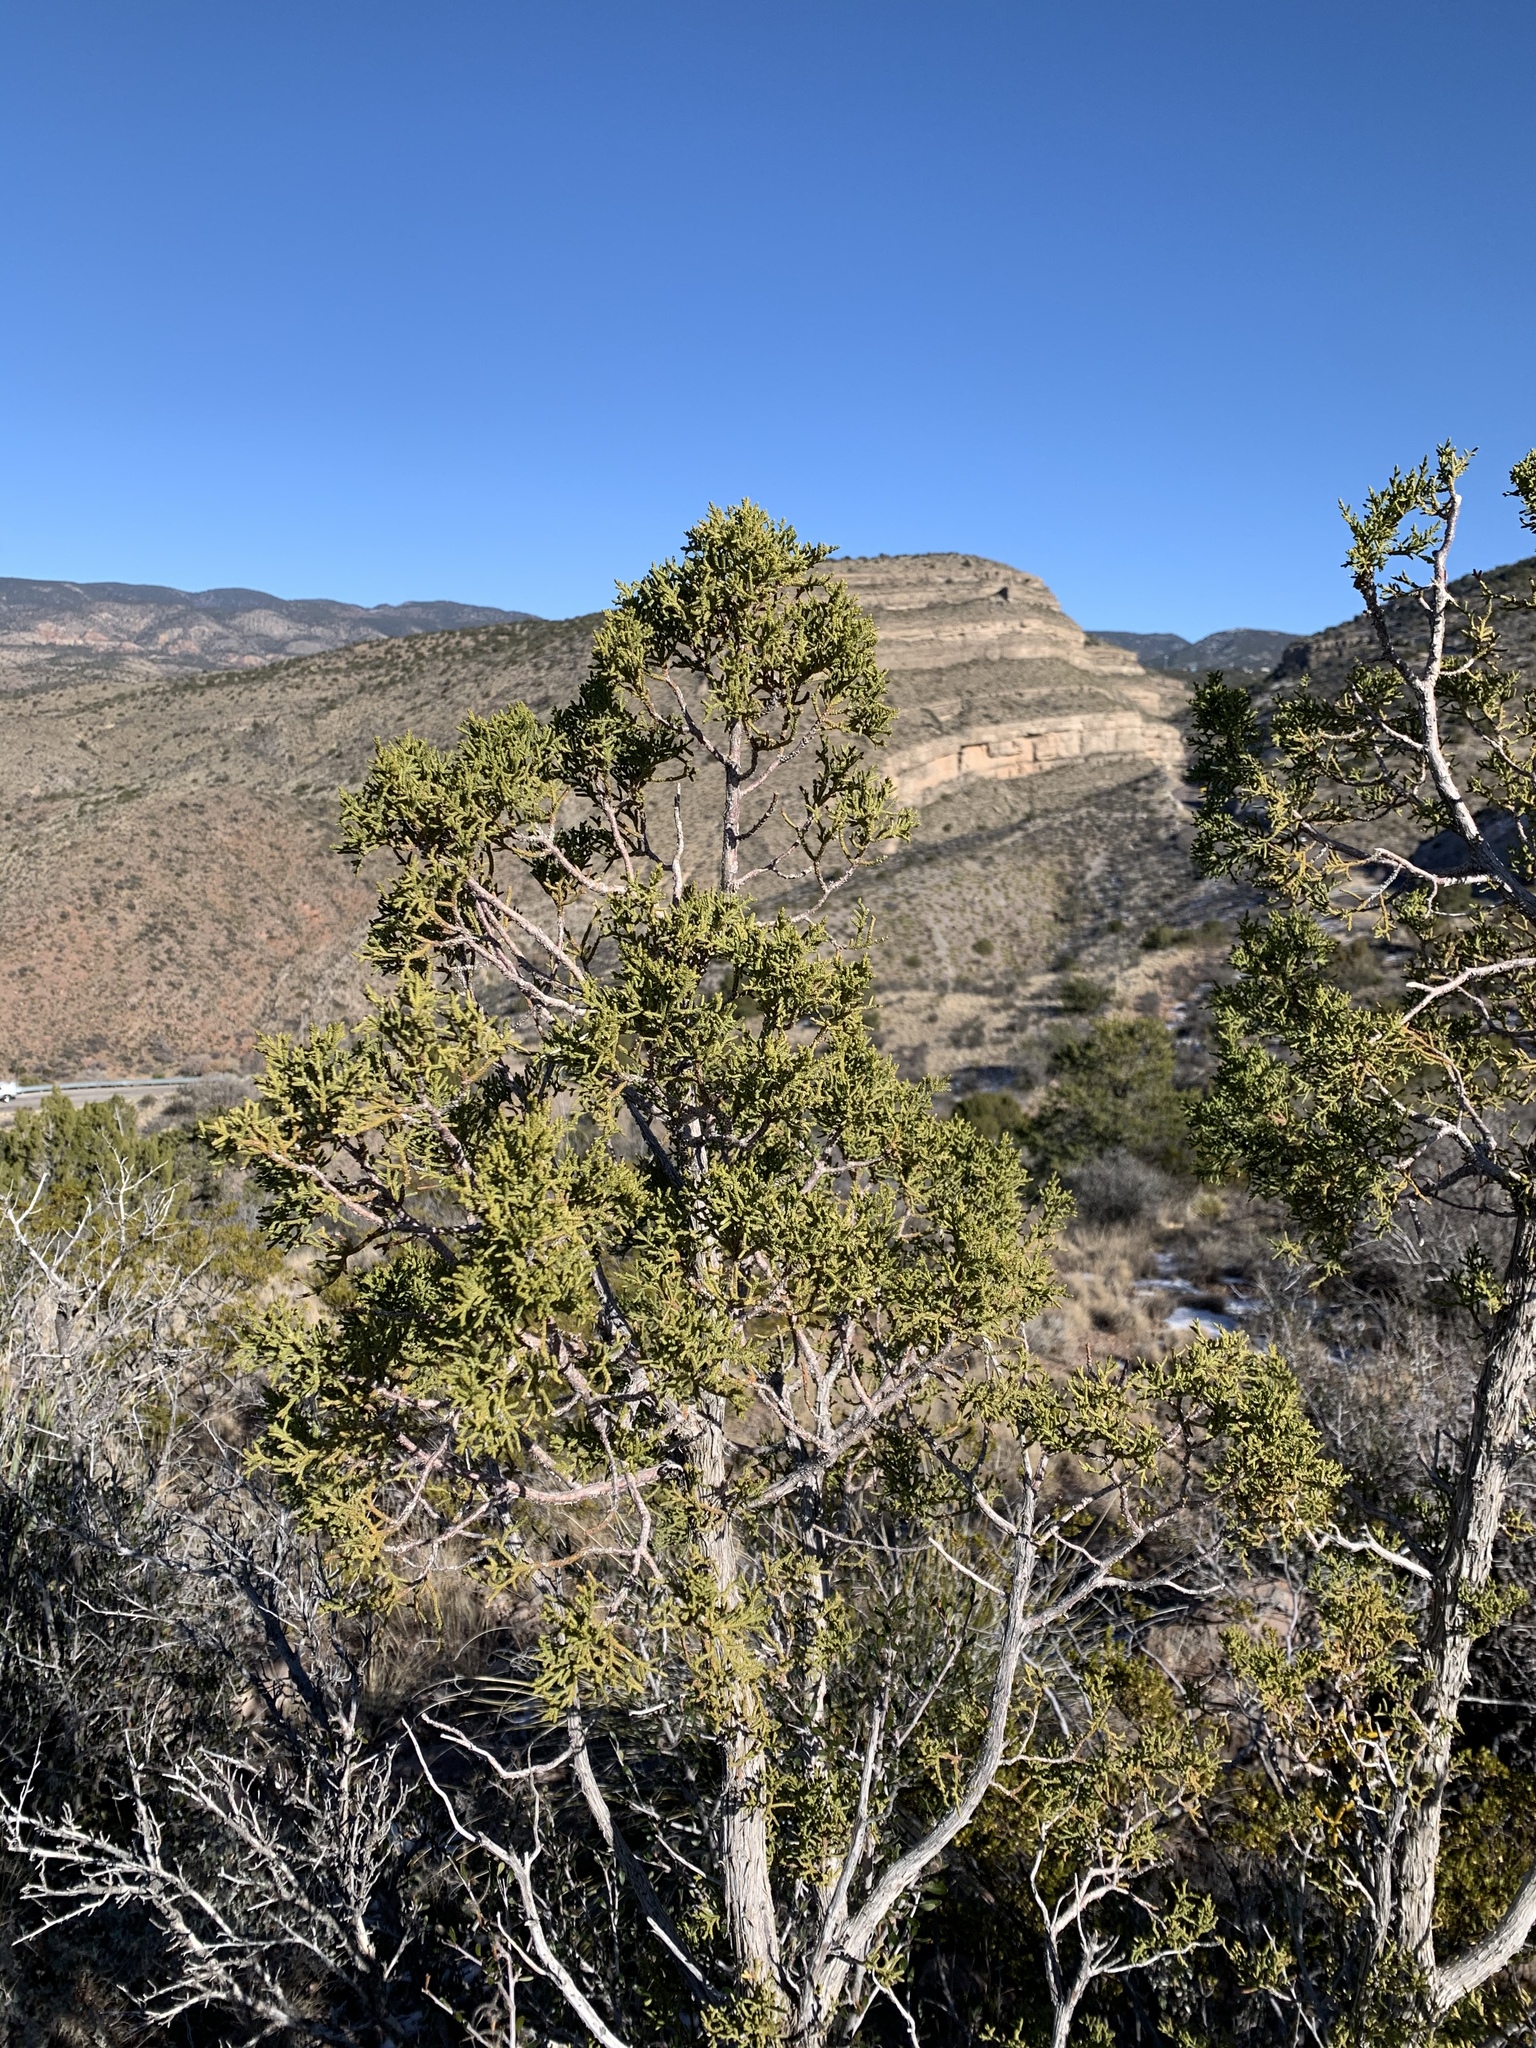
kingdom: Plantae
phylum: Tracheophyta
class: Pinopsida
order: Pinales
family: Cupressaceae
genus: Juniperus
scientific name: Juniperus monosperma
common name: One-seed juniper
